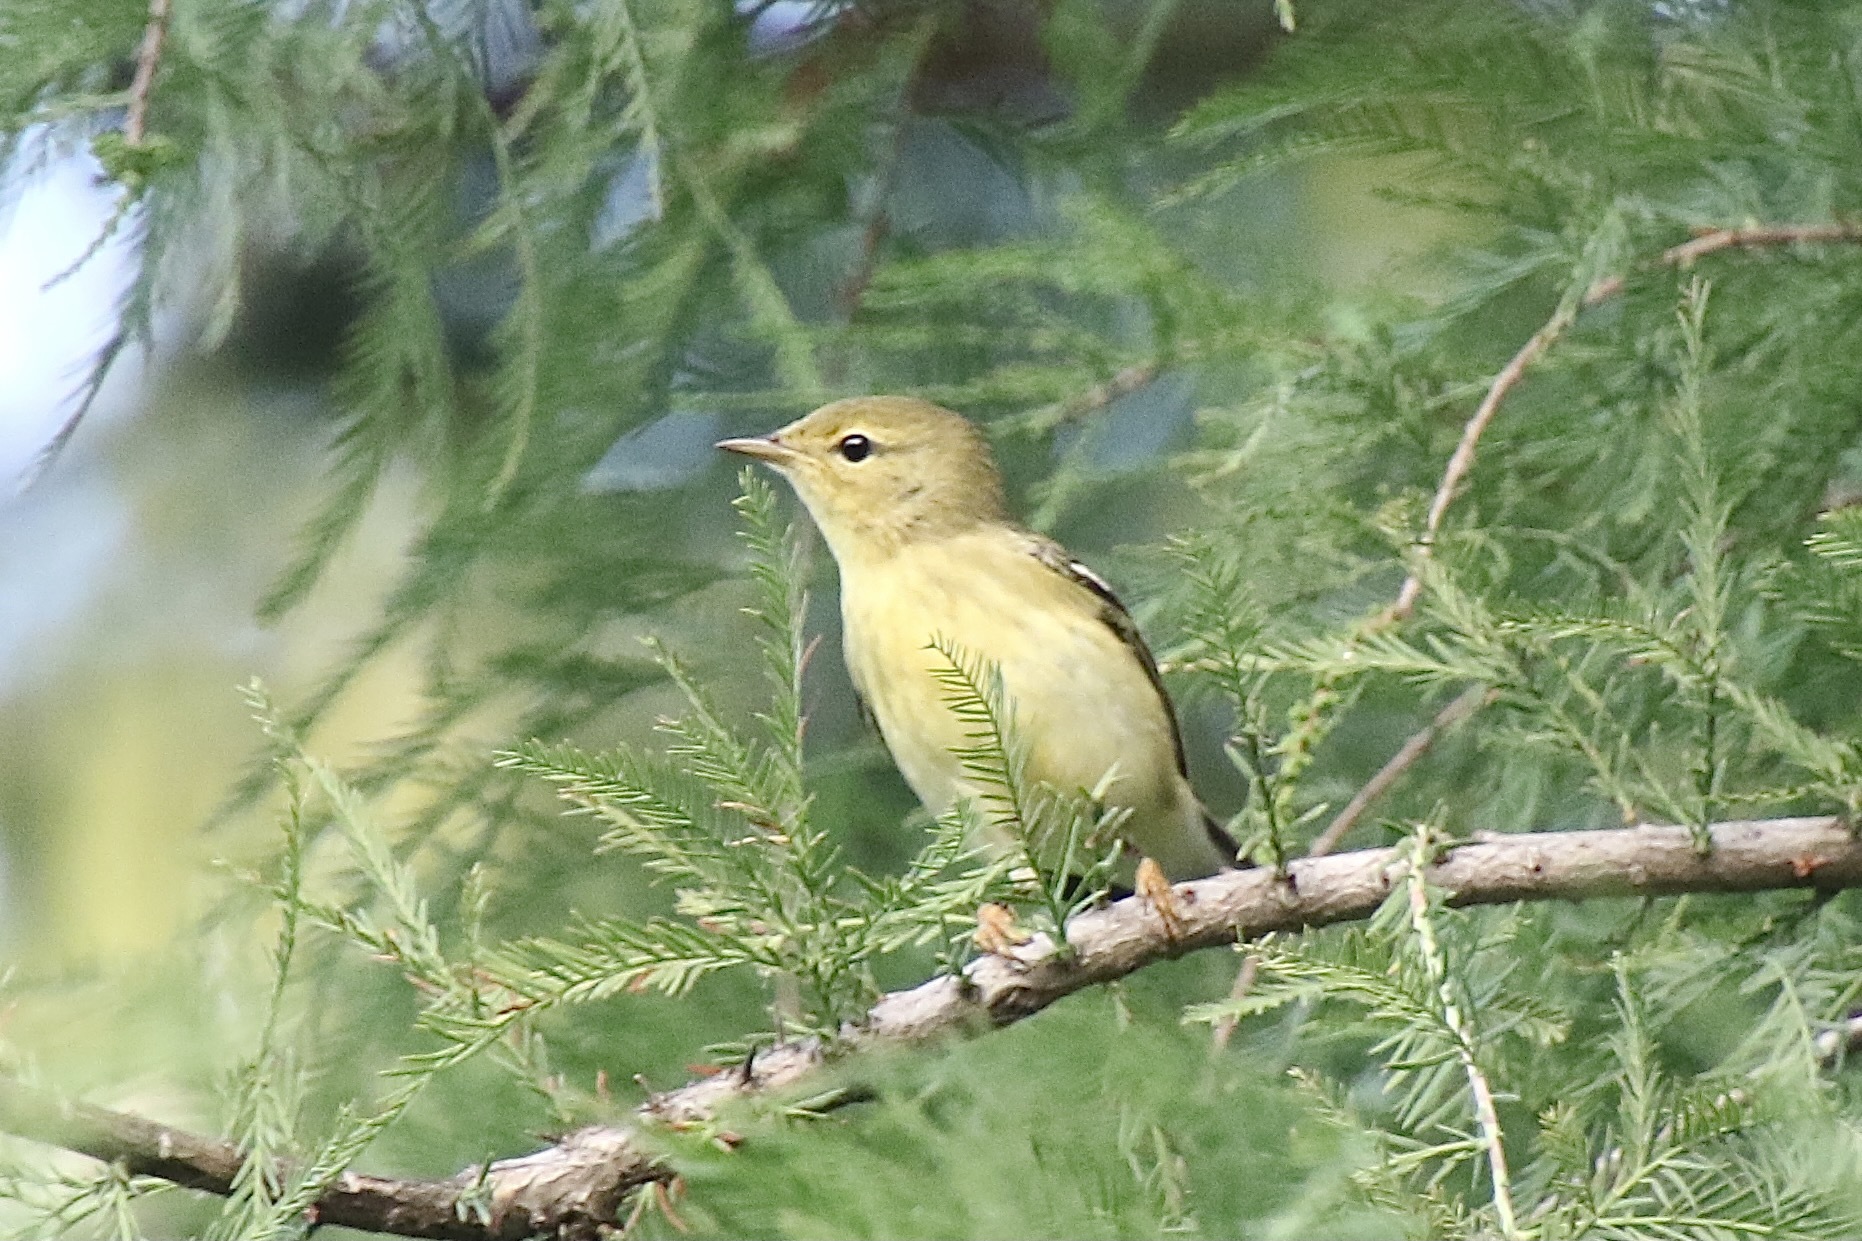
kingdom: Animalia
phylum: Chordata
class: Aves
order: Passeriformes
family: Parulidae
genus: Setophaga
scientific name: Setophaga striata
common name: Blackpoll warbler
